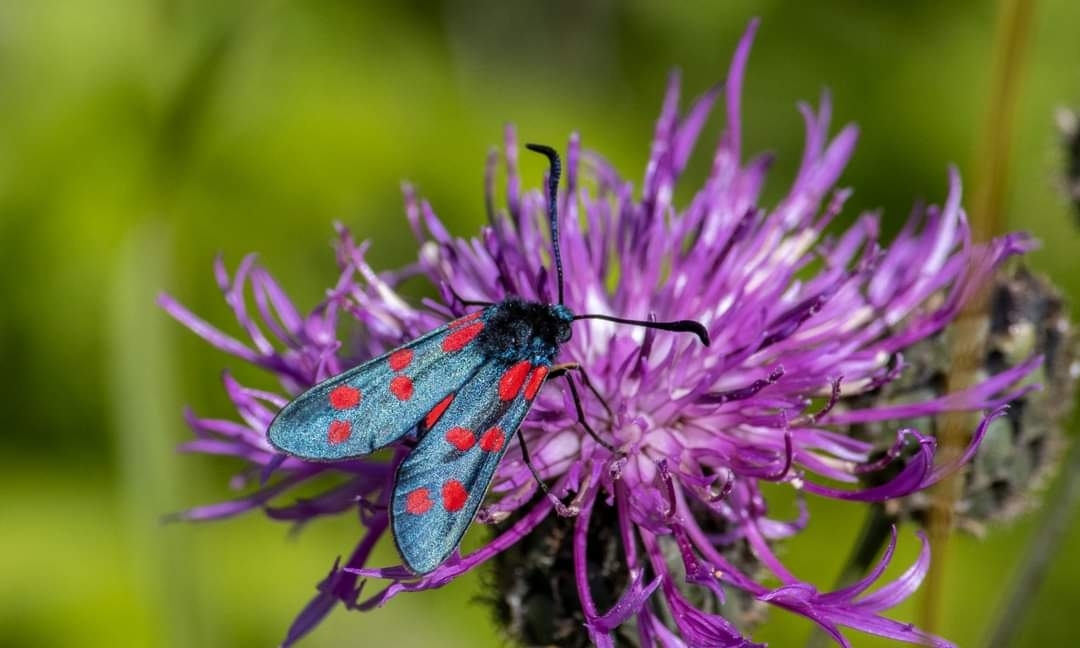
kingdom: Animalia
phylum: Arthropoda
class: Insecta
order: Lepidoptera
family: Zygaenidae
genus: Zygaena
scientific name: Zygaena filipendulae
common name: Six-spot burnet
